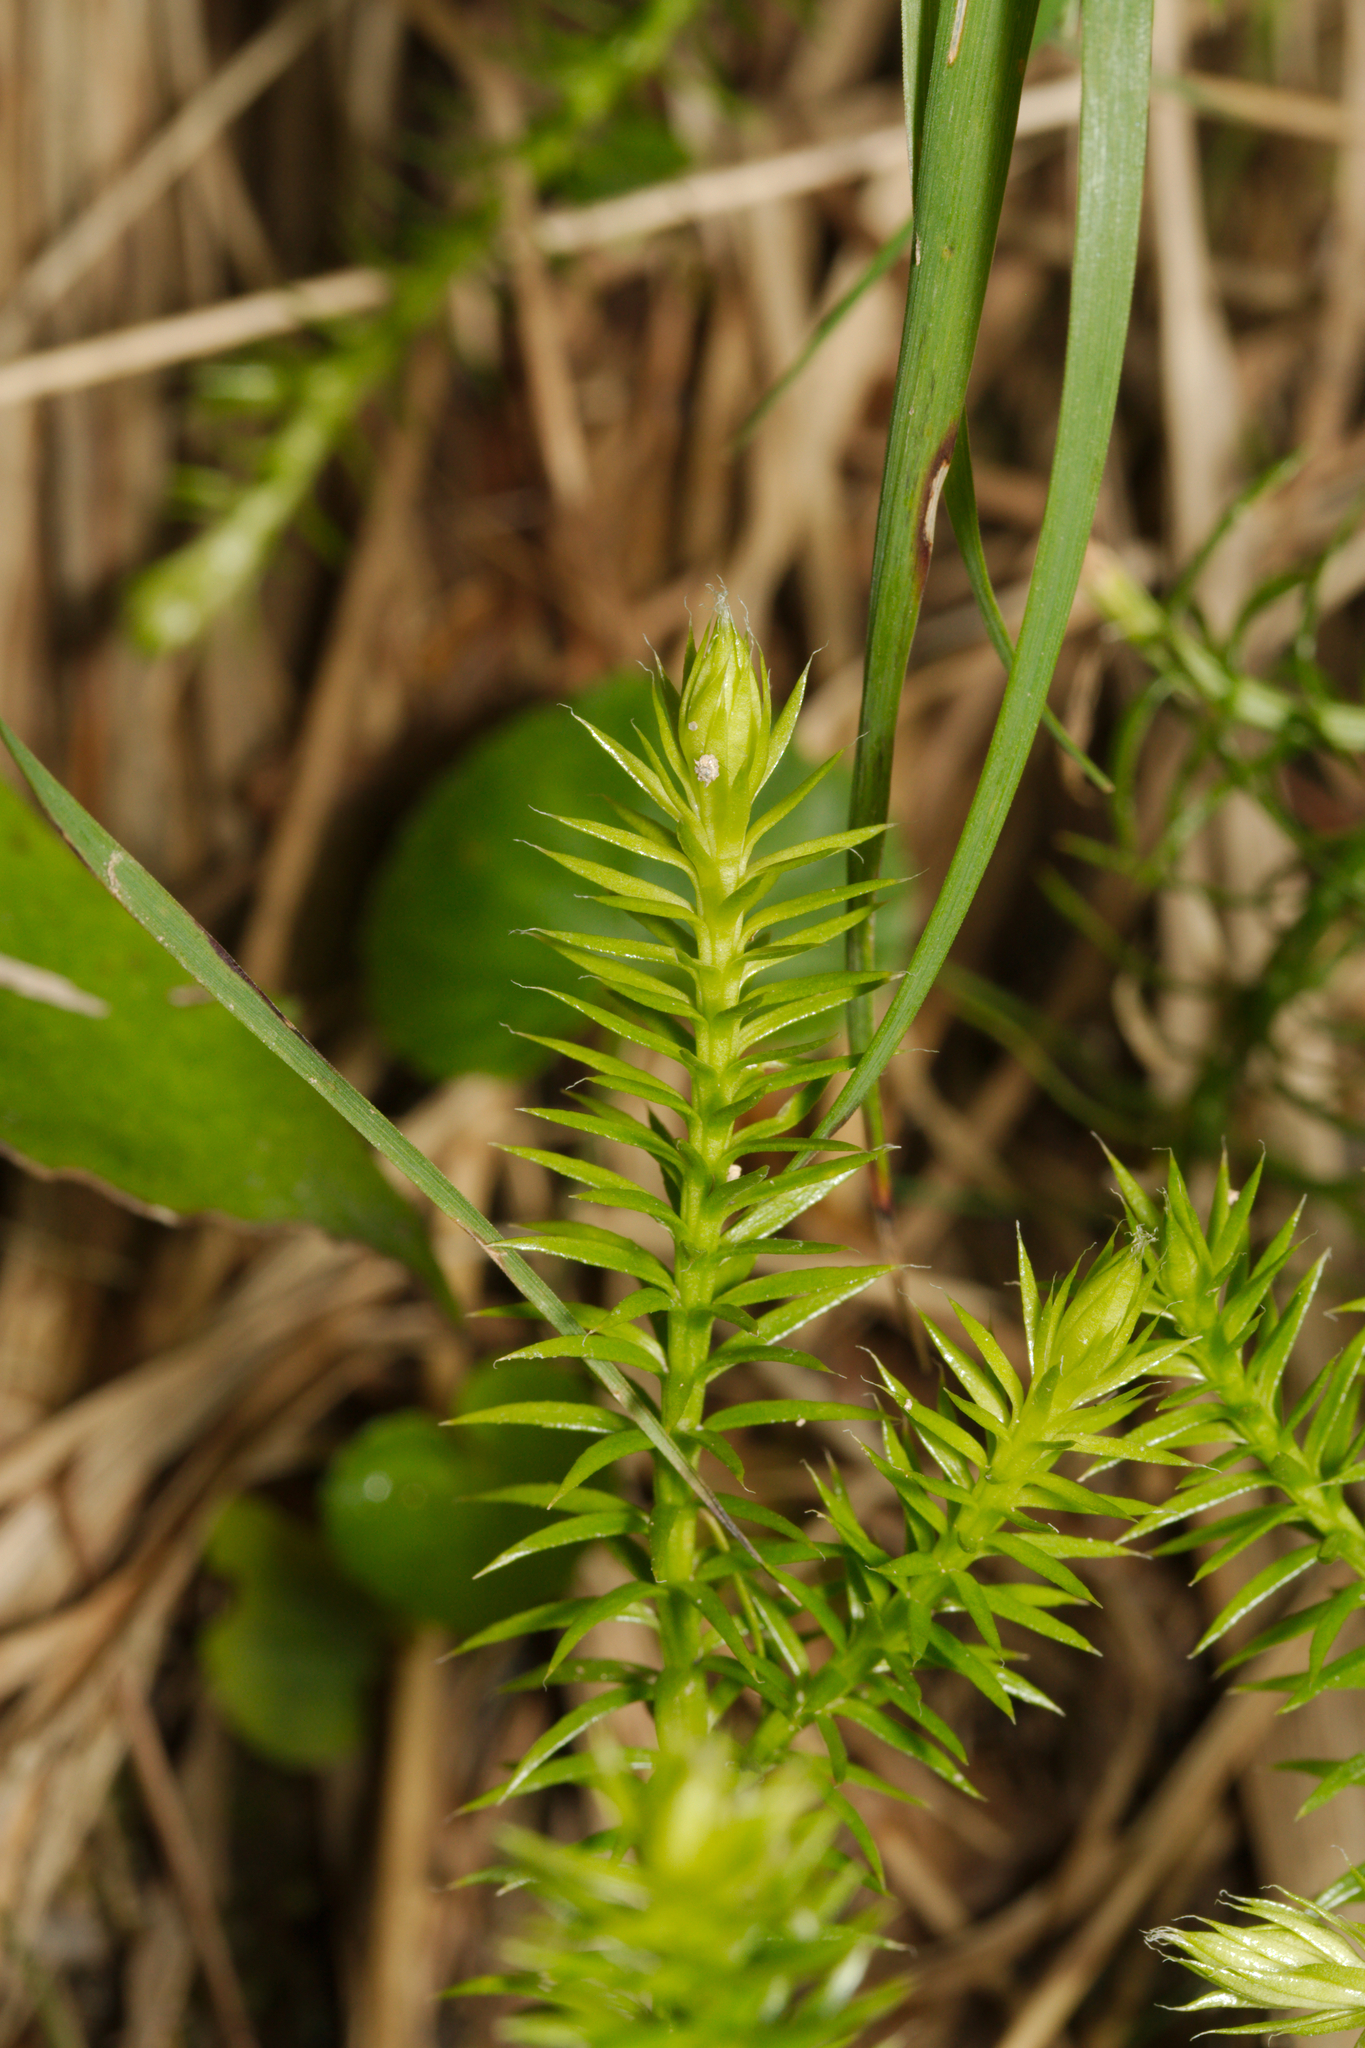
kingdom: Plantae
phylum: Tracheophyta
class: Lycopodiopsida
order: Lycopodiales
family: Lycopodiaceae
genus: Spinulum
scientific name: Spinulum annotinum
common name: Interrupted club-moss
